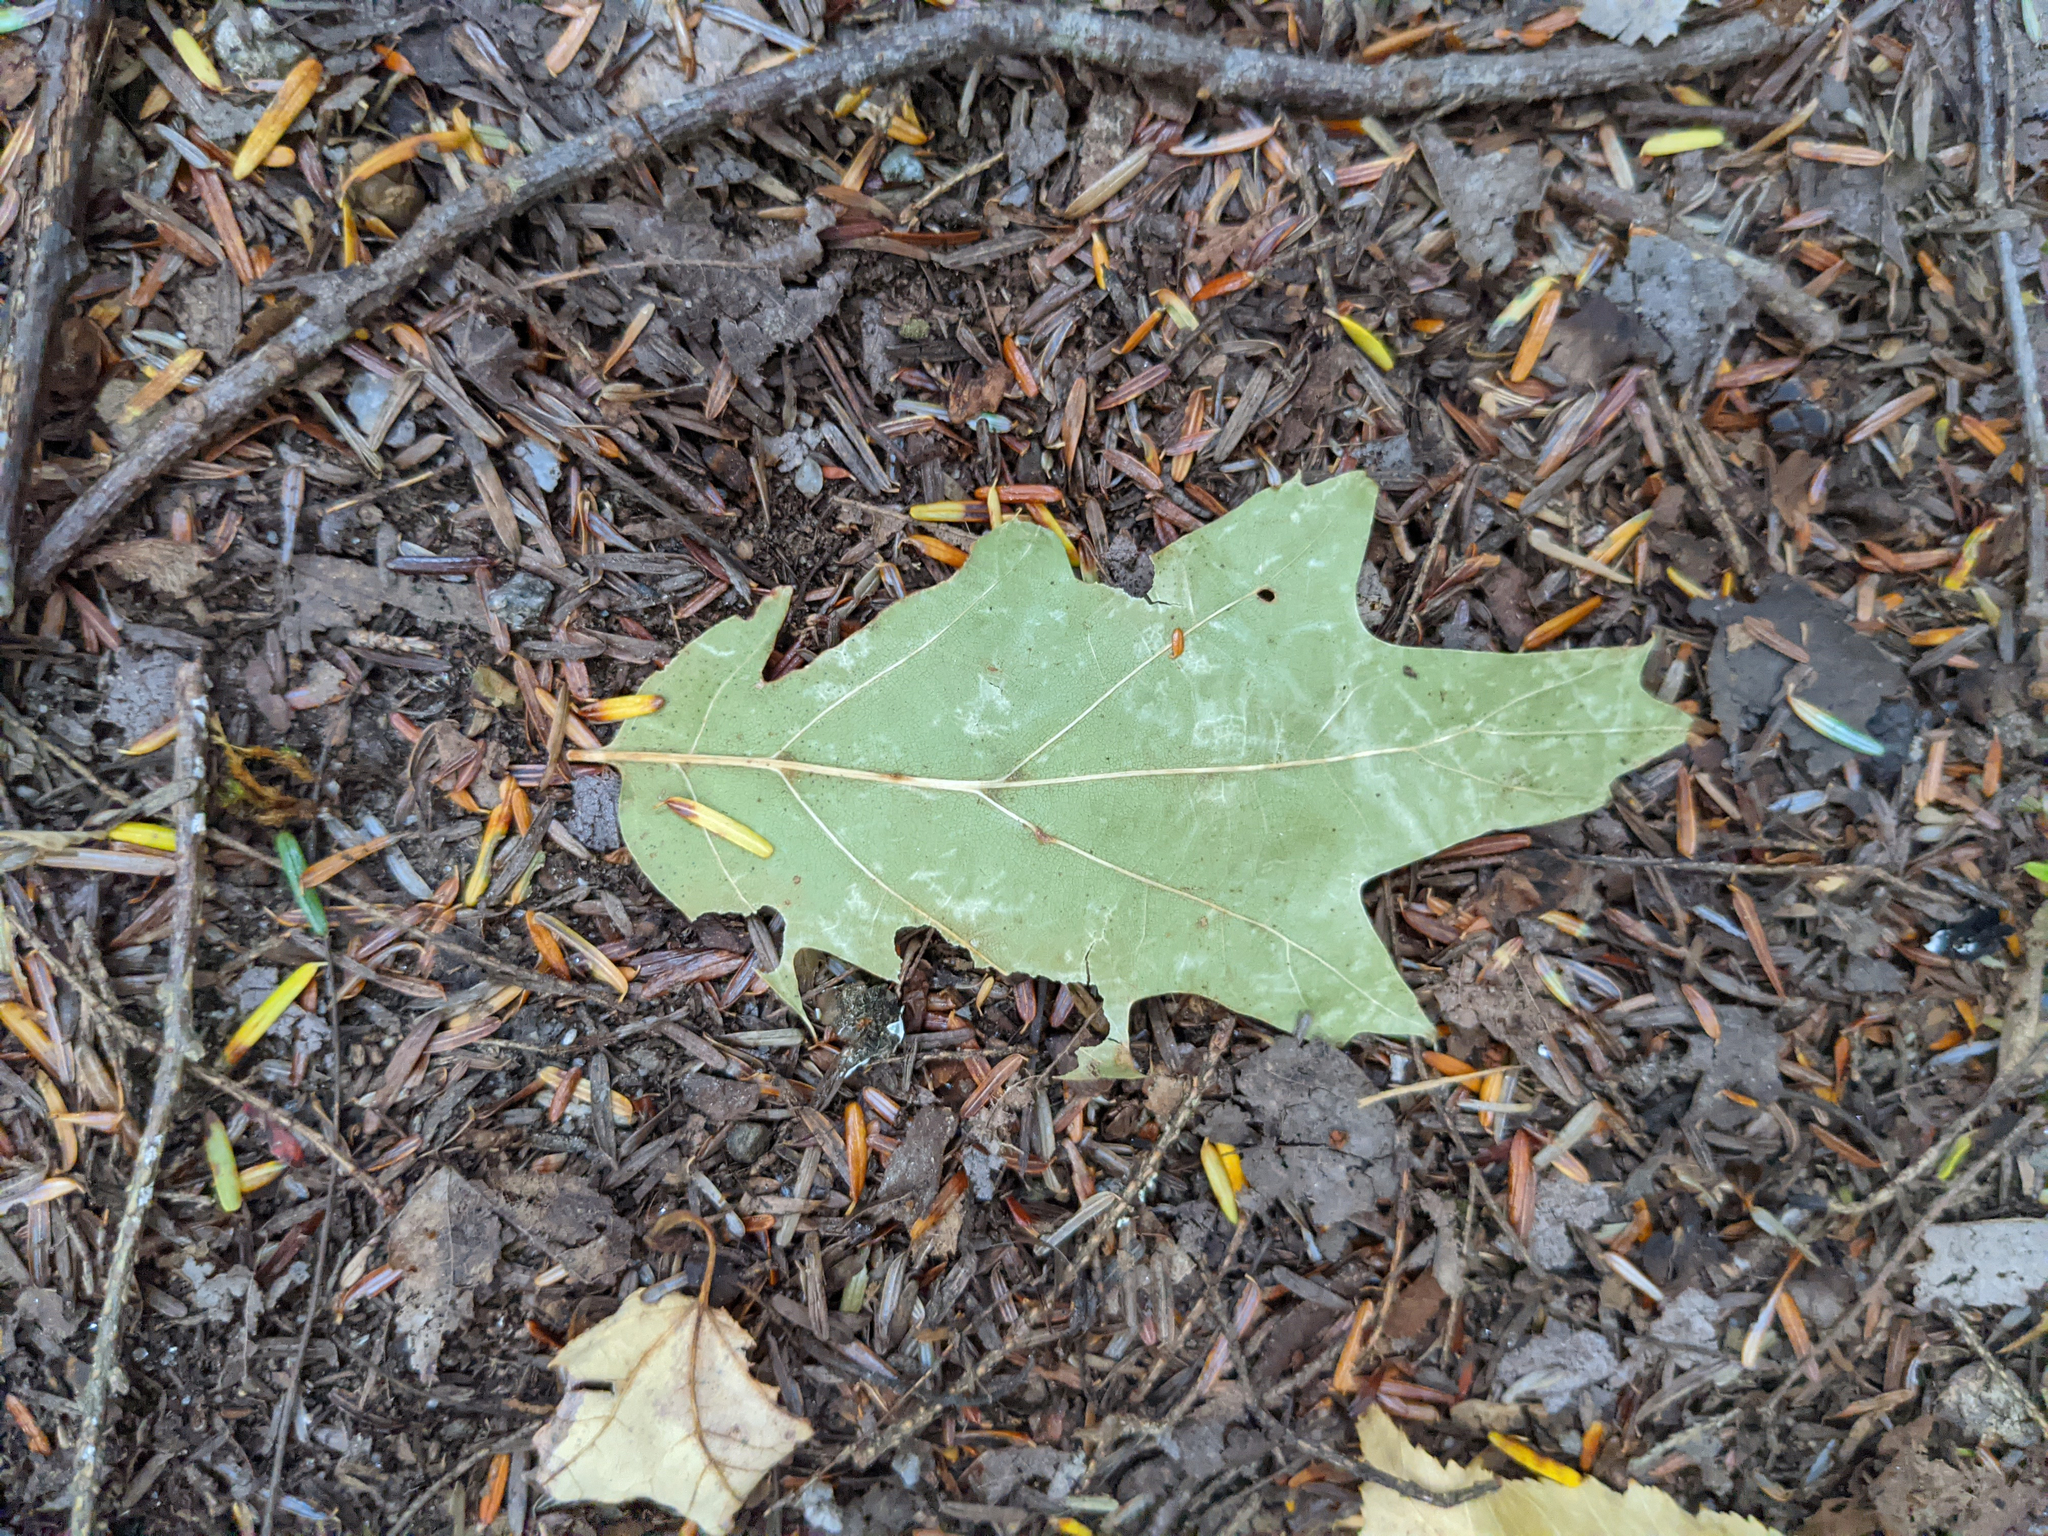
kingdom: Plantae
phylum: Tracheophyta
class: Magnoliopsida
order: Fagales
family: Fagaceae
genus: Quercus
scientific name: Quercus rubra
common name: Red oak
